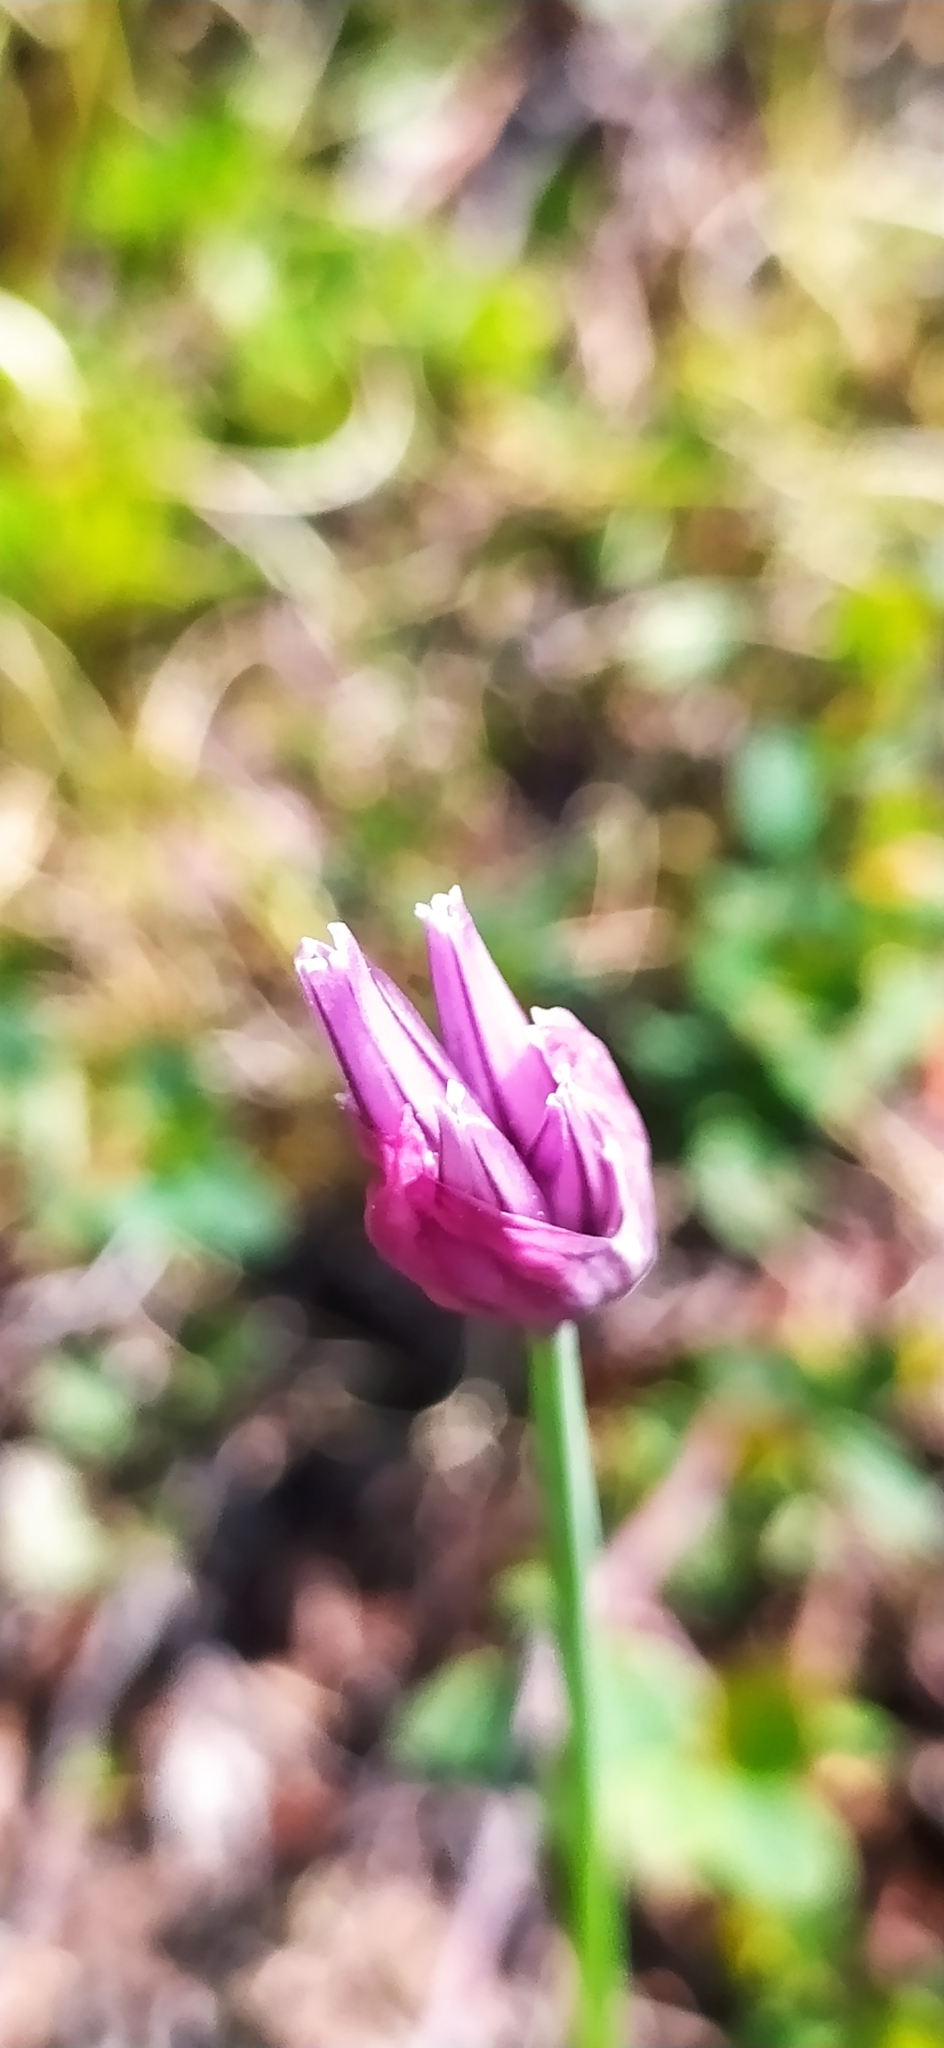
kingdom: Plantae
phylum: Tracheophyta
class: Liliopsida
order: Asparagales
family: Amaryllidaceae
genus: Allium
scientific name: Allium schoenoprasum
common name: Chives
